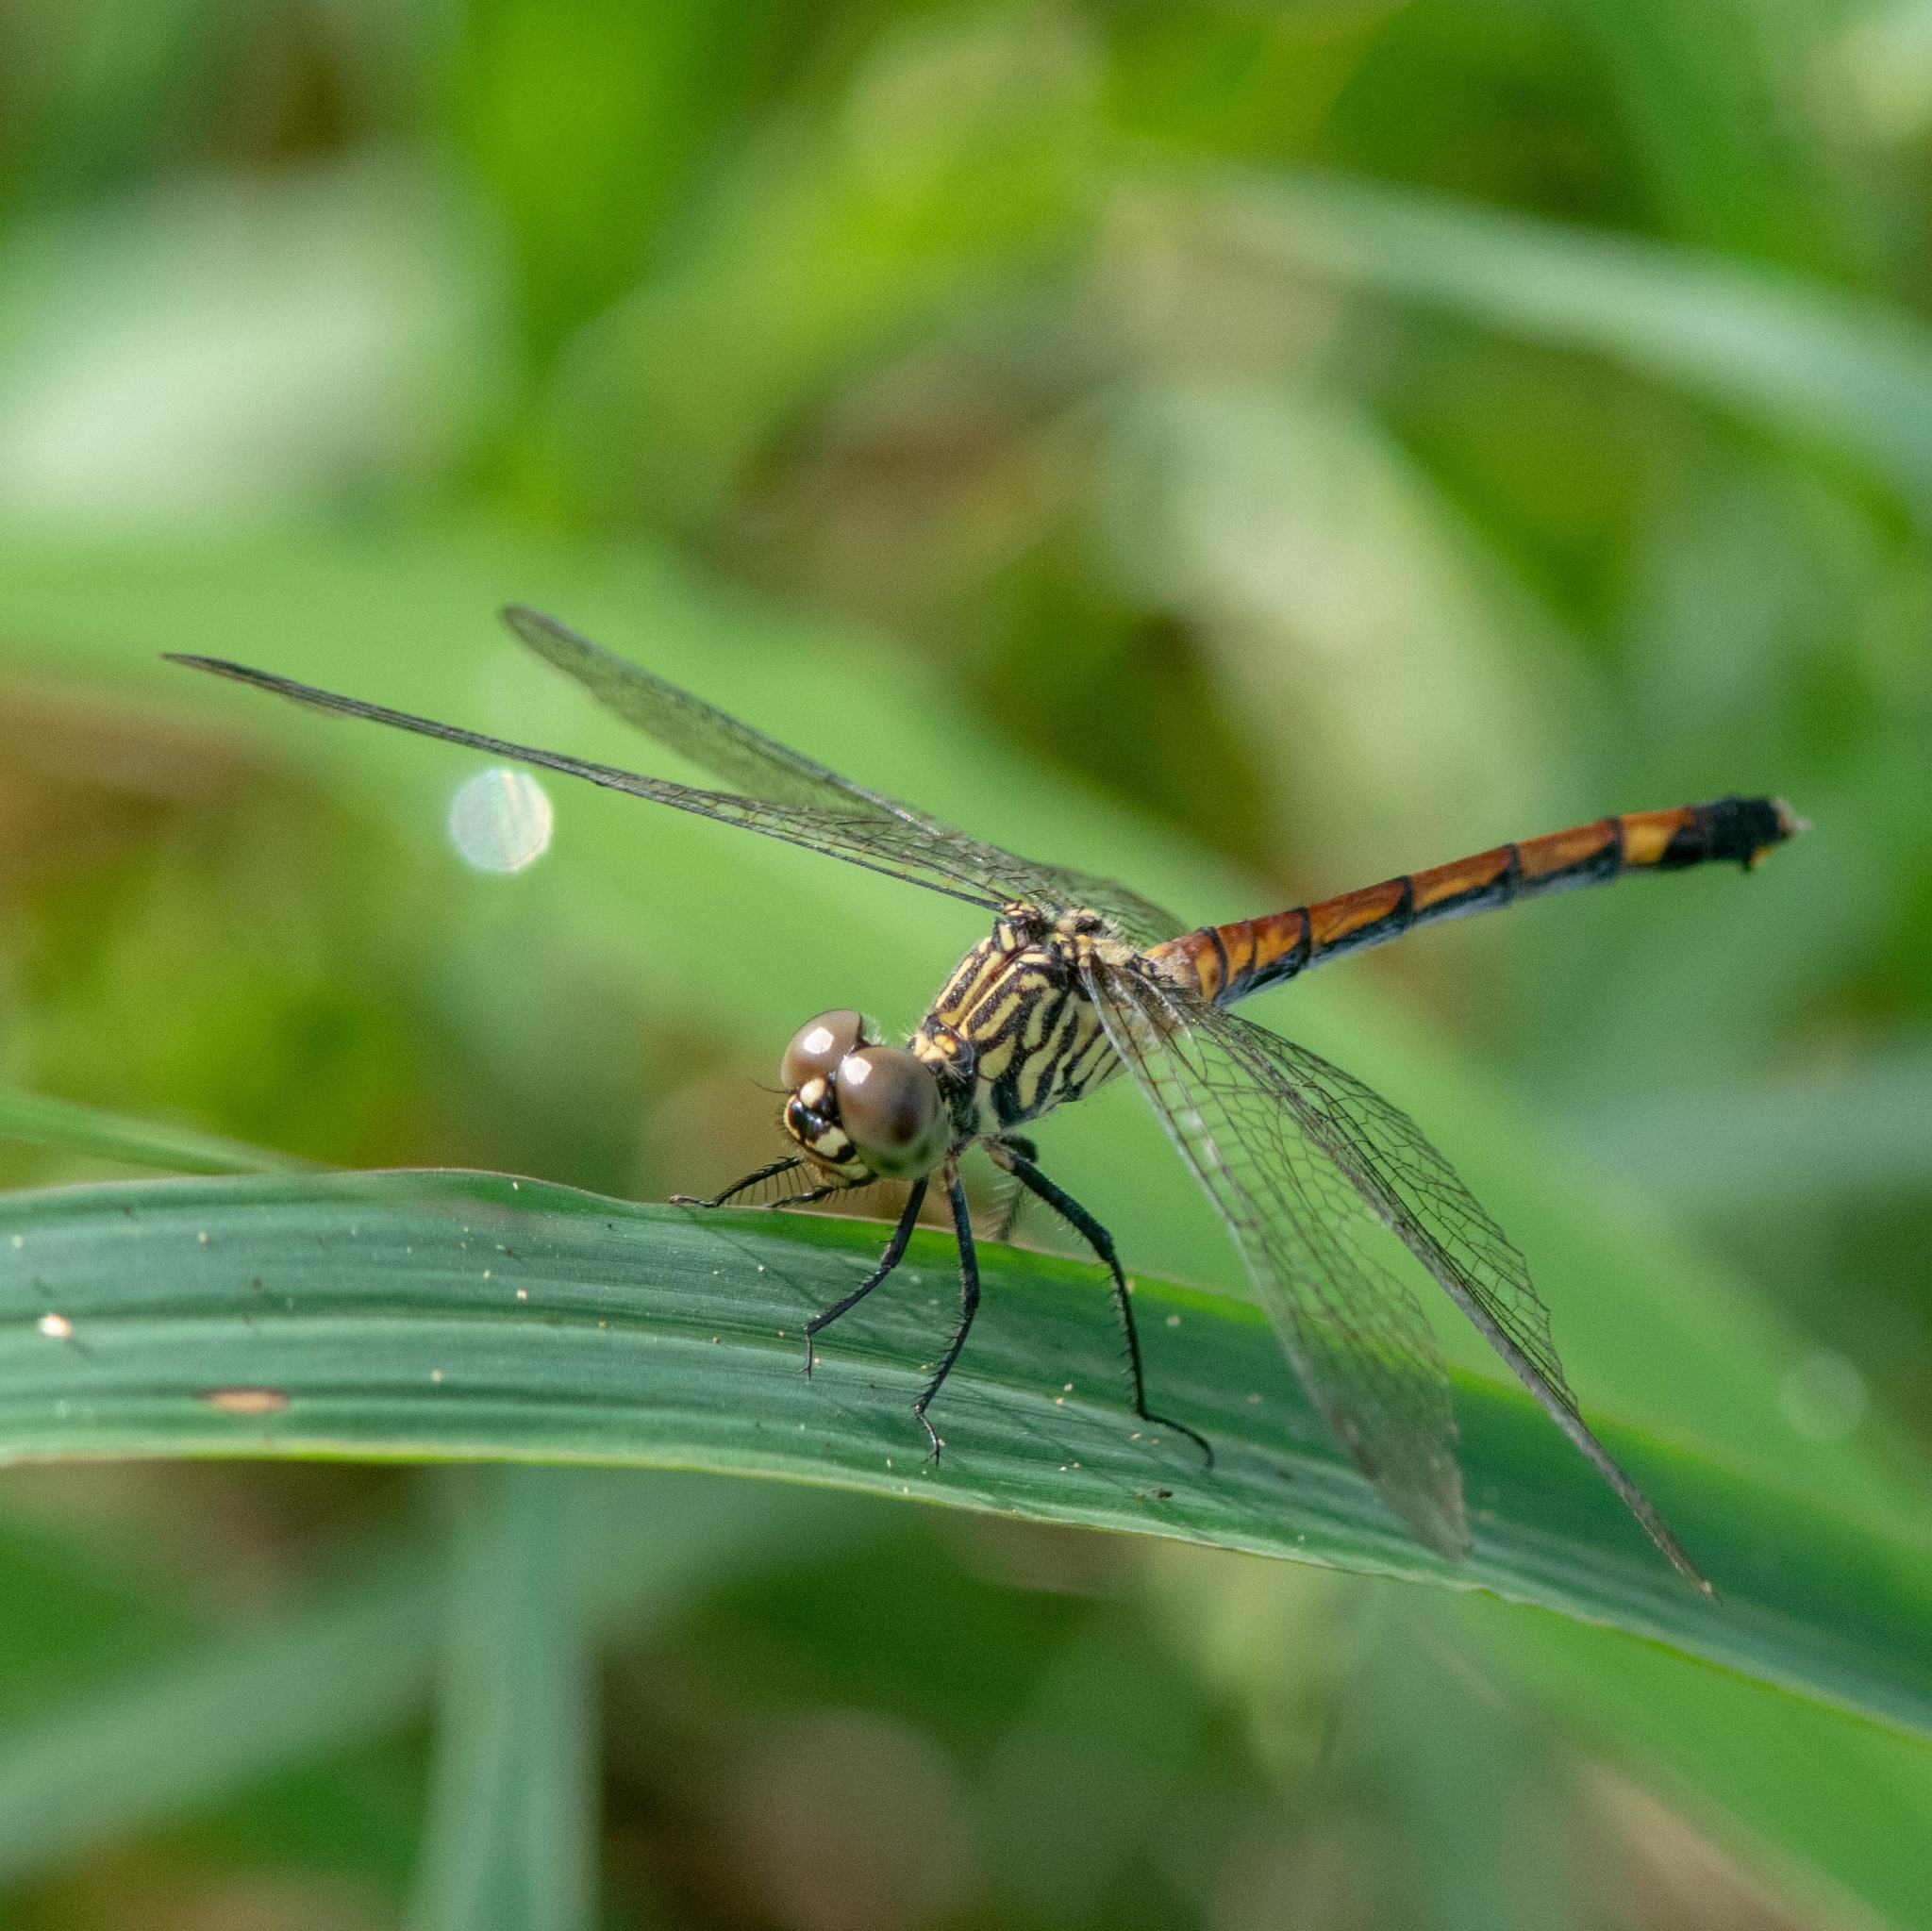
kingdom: Animalia
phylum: Arthropoda
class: Insecta
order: Odonata
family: Libellulidae
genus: Erythrodiplax
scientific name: Erythrodiplax berenice
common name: Seaside dragonlet
